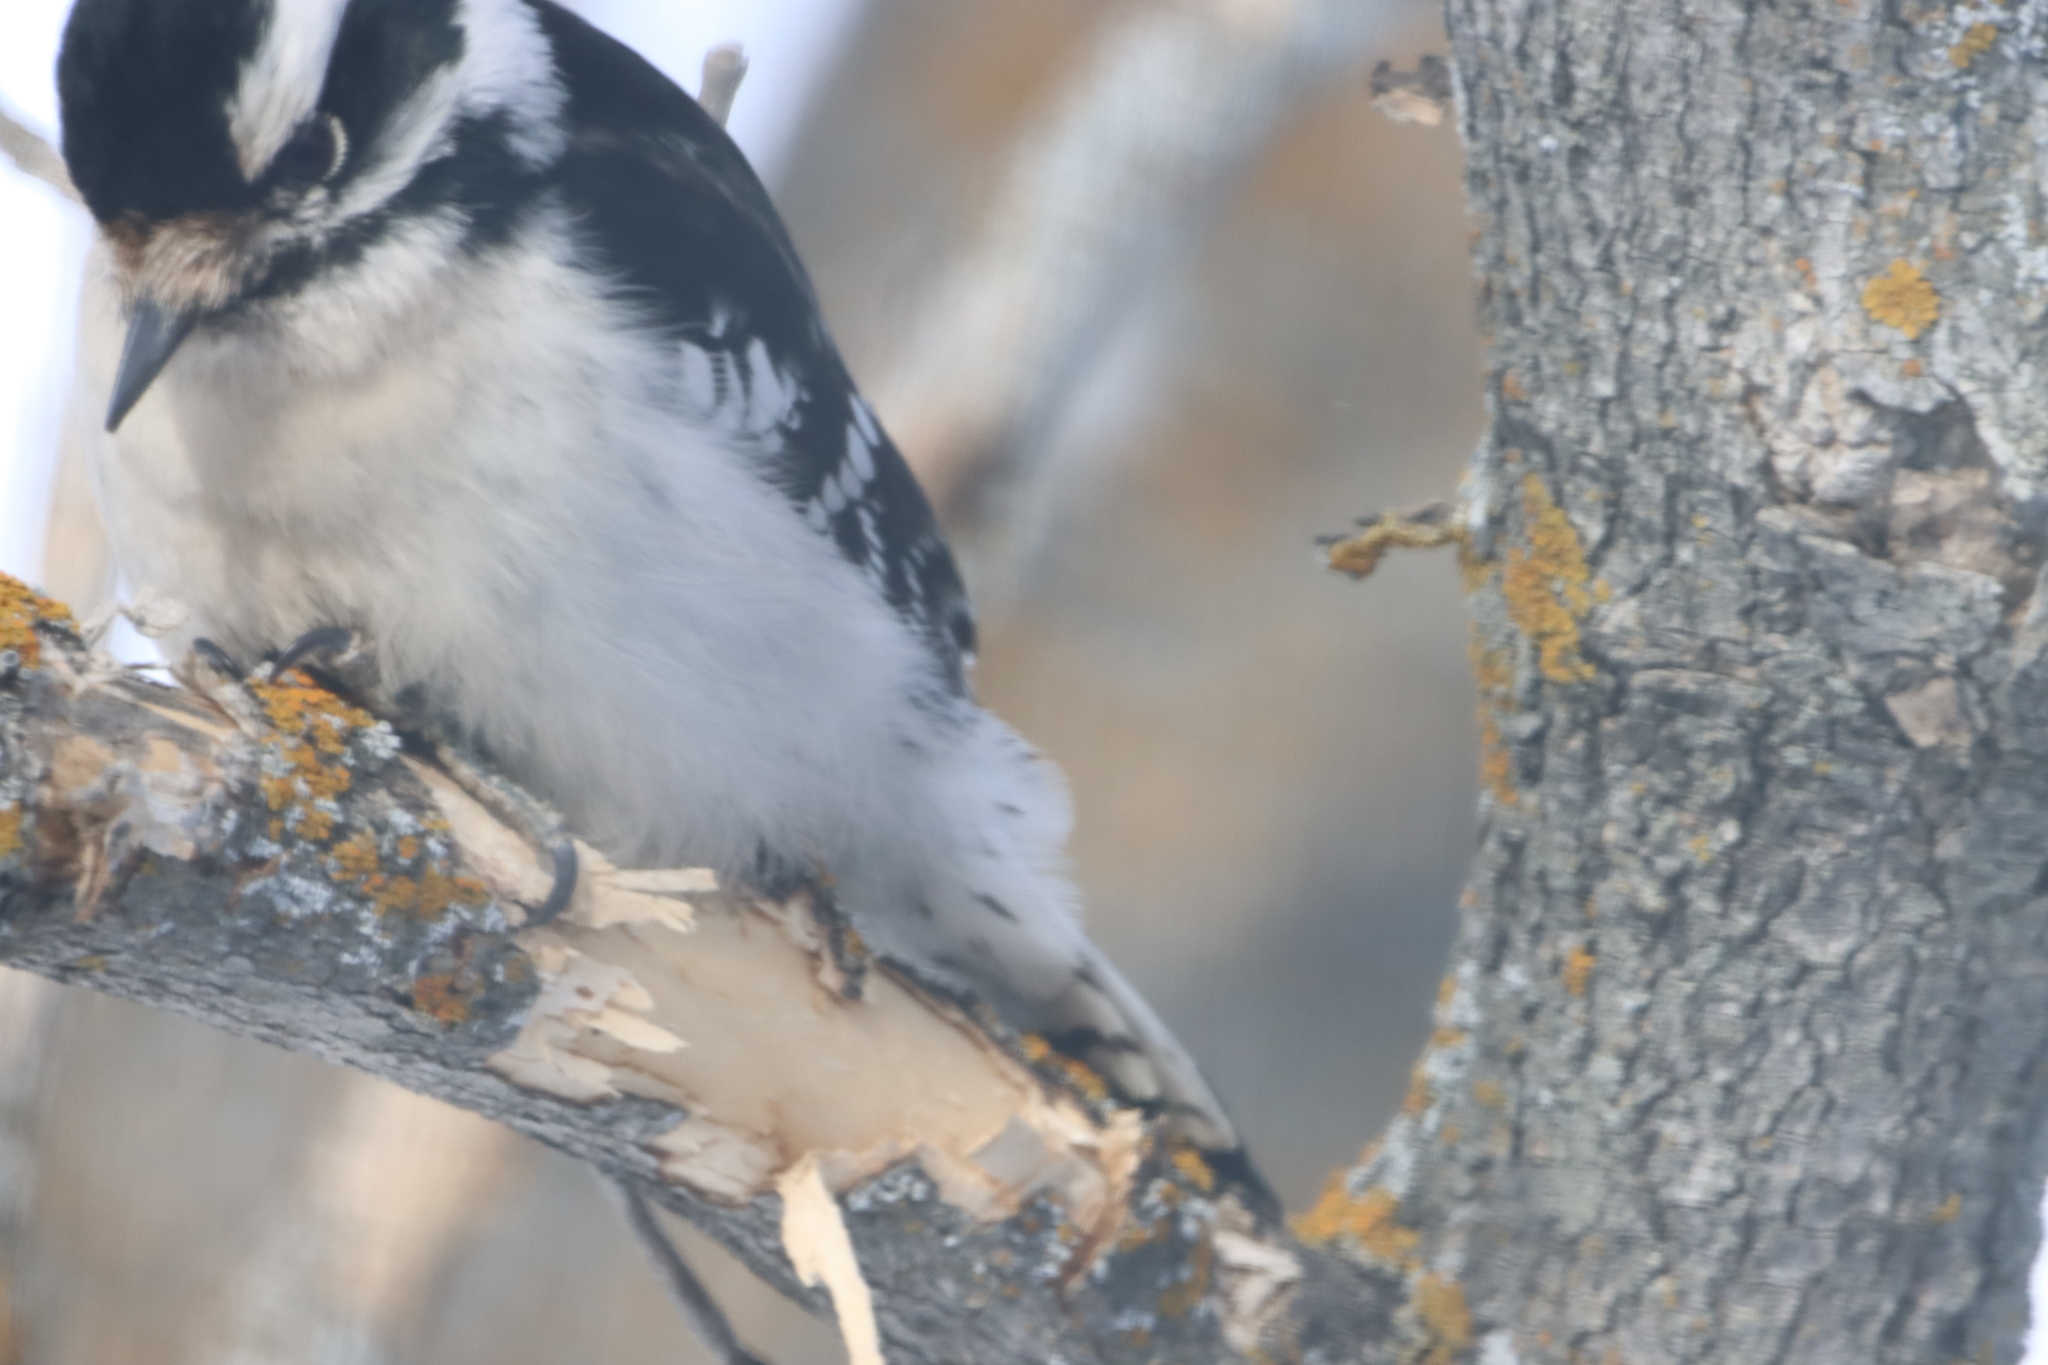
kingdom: Animalia
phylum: Chordata
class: Aves
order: Piciformes
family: Picidae
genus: Dryobates
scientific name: Dryobates pubescens
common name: Downy woodpecker
